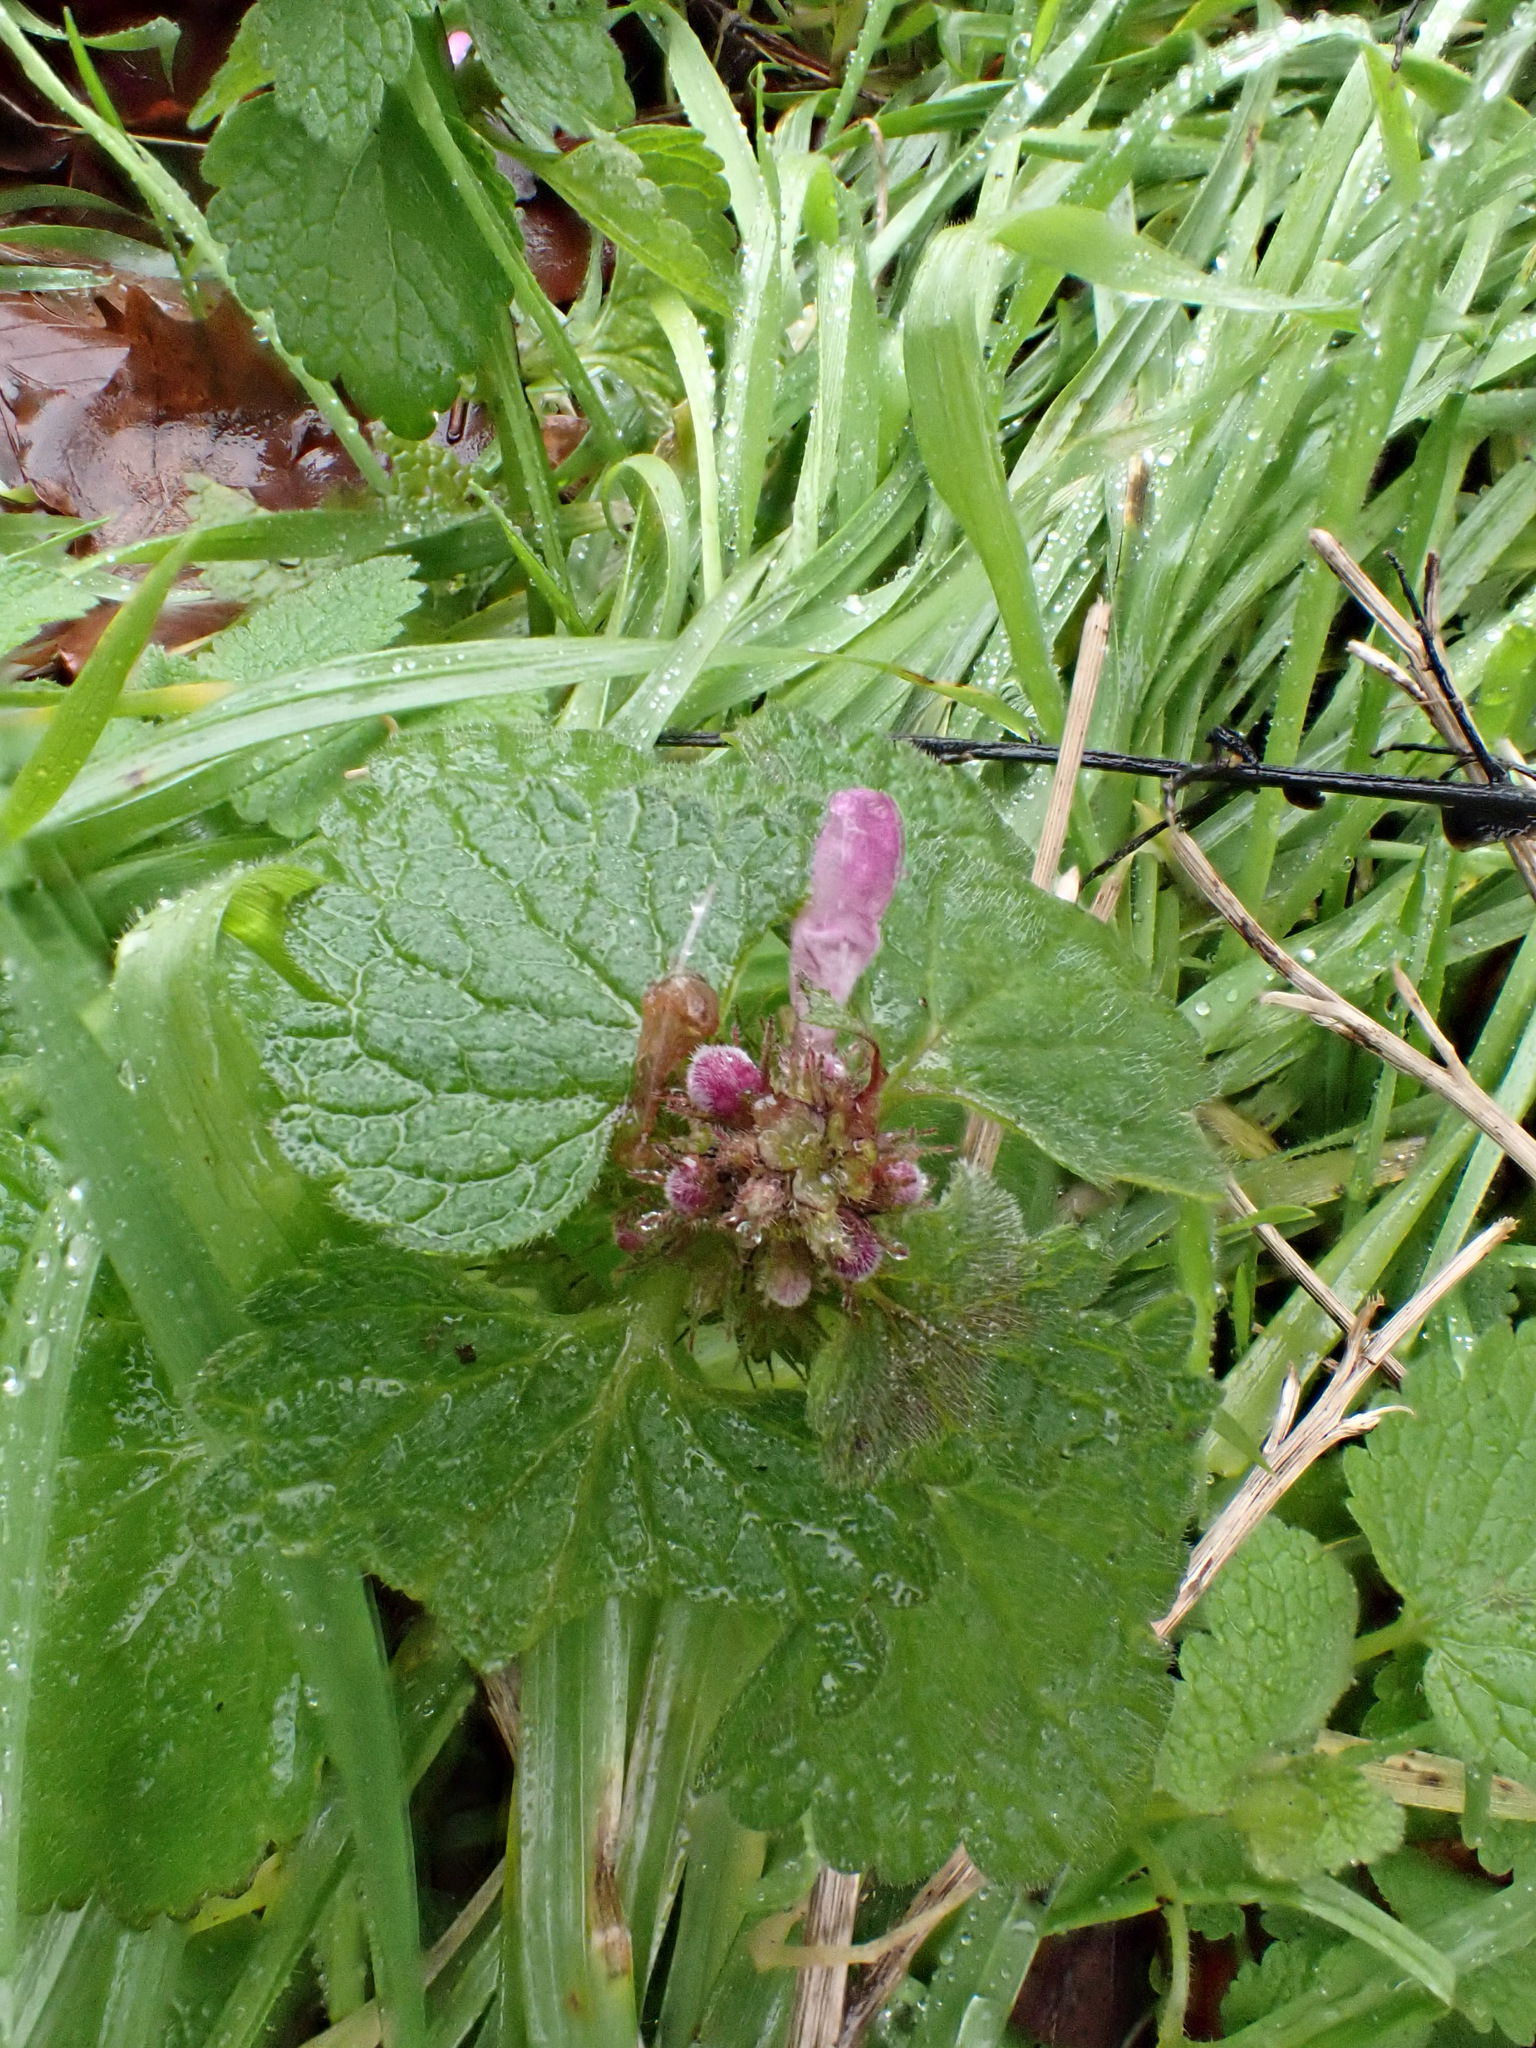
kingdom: Plantae
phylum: Tracheophyta
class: Magnoliopsida
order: Lamiales
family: Lamiaceae
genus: Lamium
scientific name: Lamium purpureum
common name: Red dead-nettle
